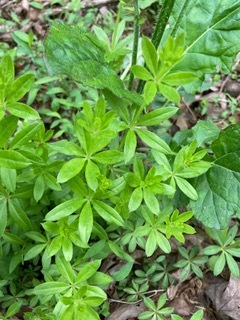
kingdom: Plantae
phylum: Tracheophyta
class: Magnoliopsida
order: Gentianales
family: Rubiaceae
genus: Galium
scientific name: Galium triflorum
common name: Fragrant bedstraw
